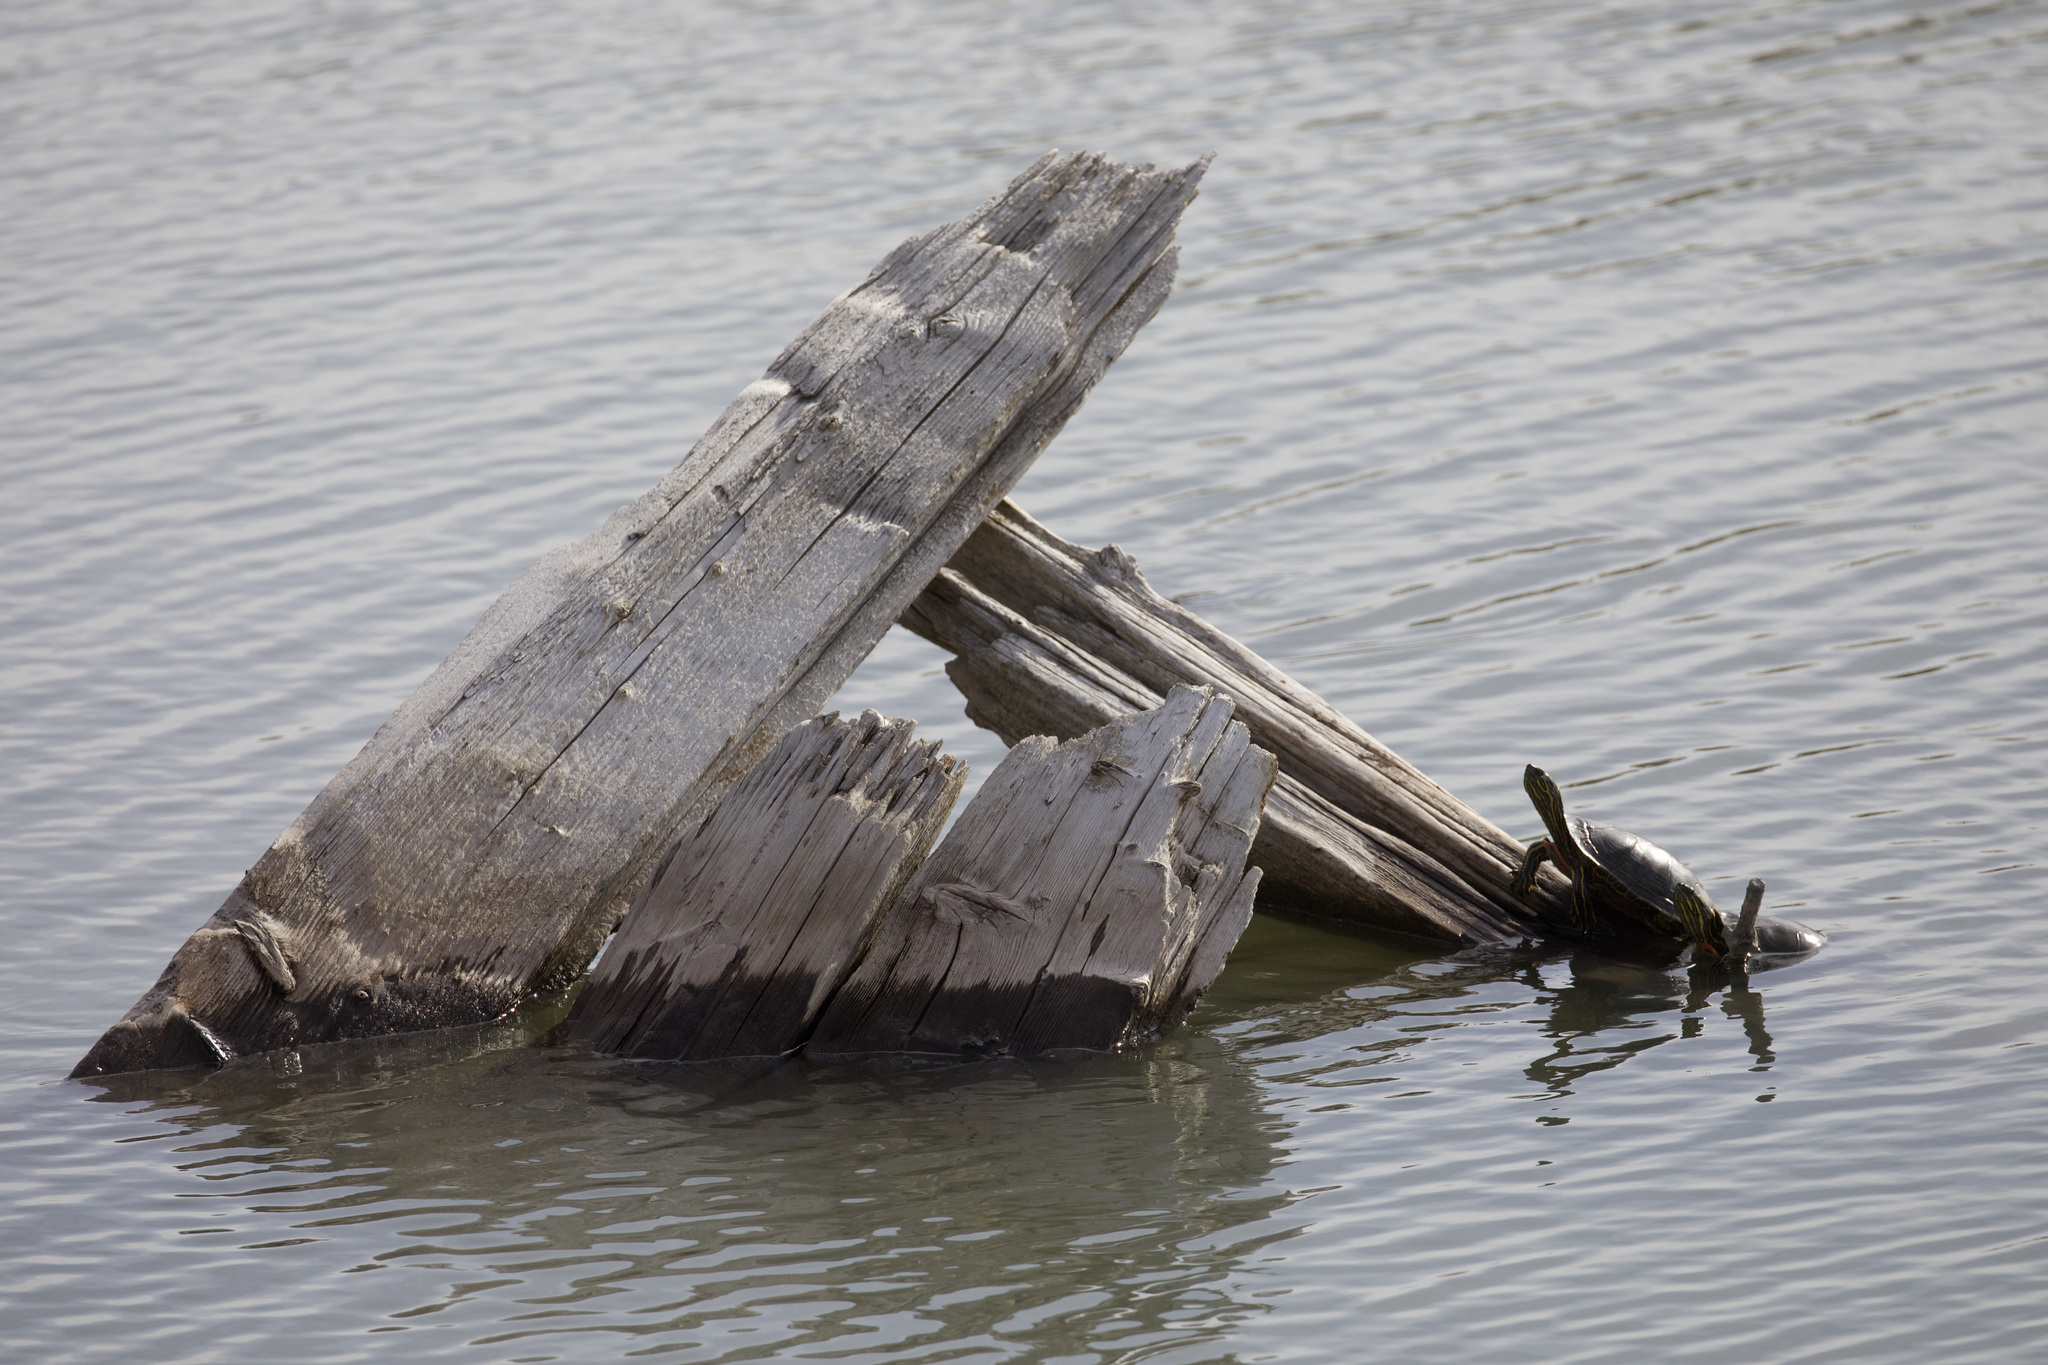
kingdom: Animalia
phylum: Chordata
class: Testudines
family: Emydidae
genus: Chrysemys
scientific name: Chrysemys picta
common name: Painted turtle
